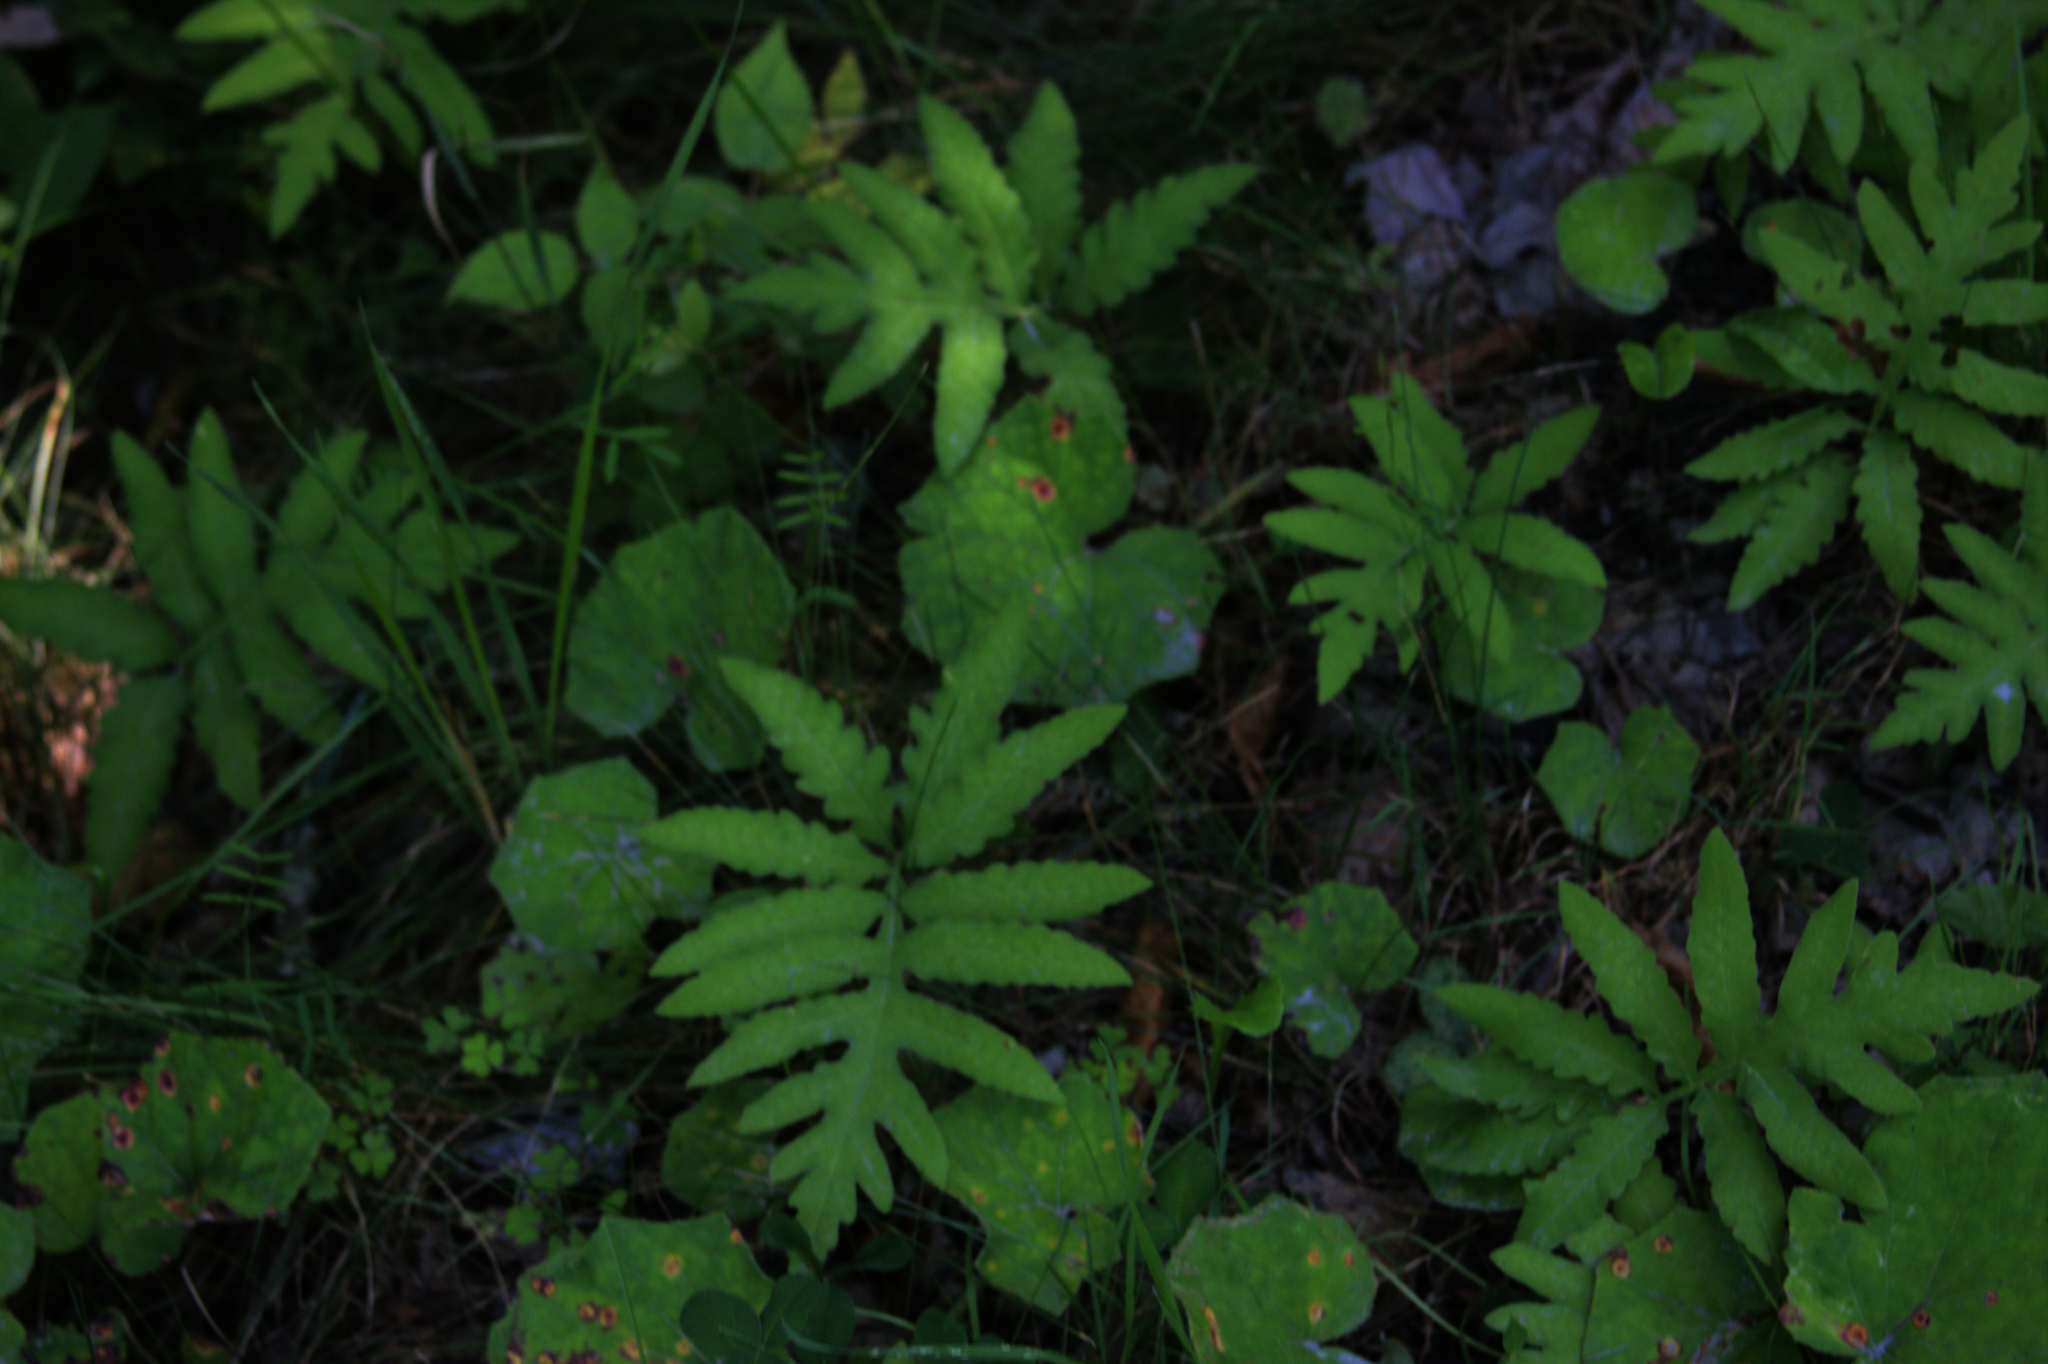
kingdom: Plantae
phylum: Tracheophyta
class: Polypodiopsida
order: Polypodiales
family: Onocleaceae
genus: Onoclea
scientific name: Onoclea sensibilis
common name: Sensitive fern
